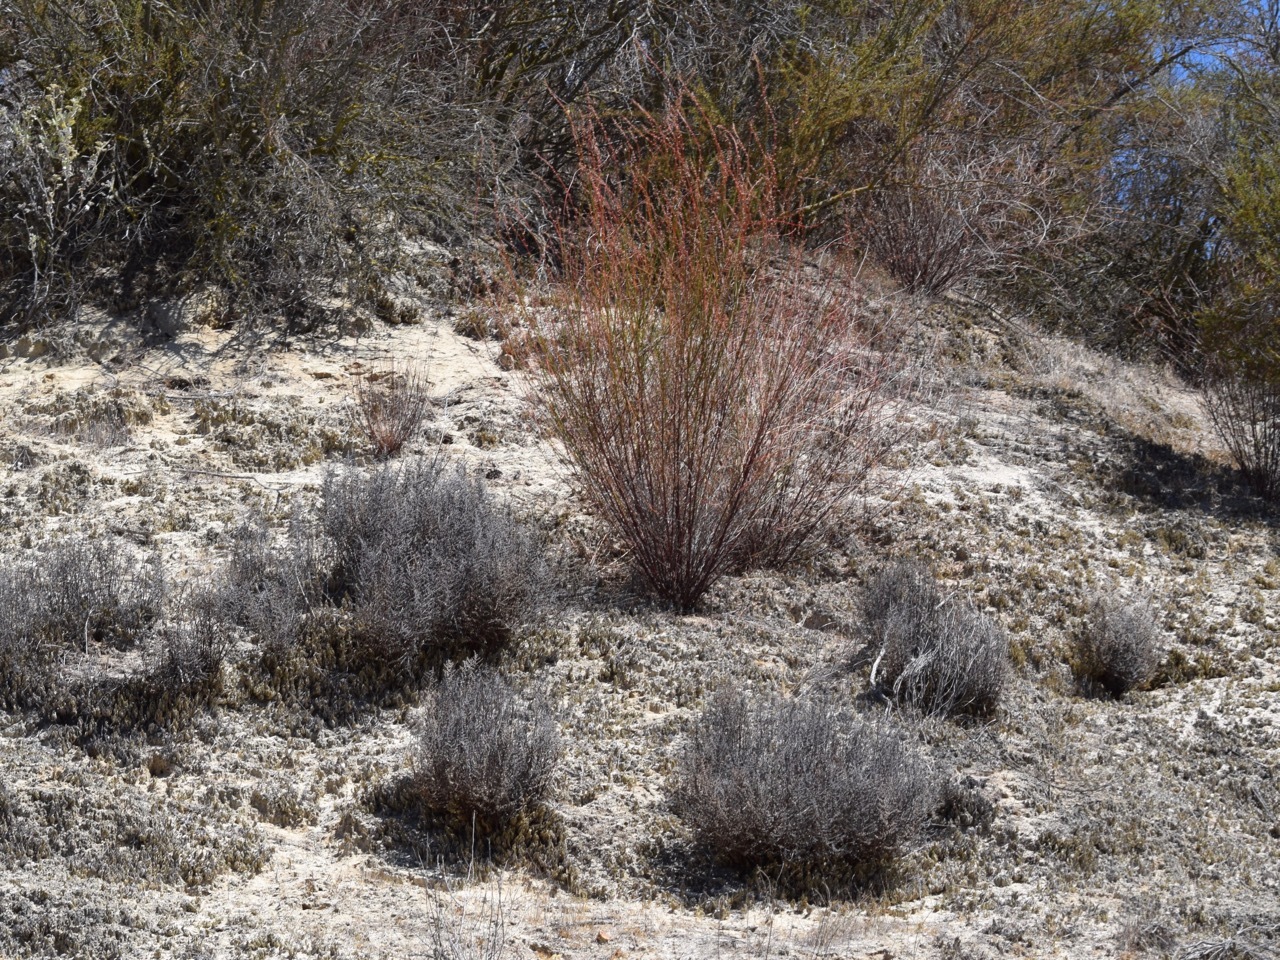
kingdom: Plantae
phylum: Tracheophyta
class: Magnoliopsida
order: Fabales
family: Fabaceae
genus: Acmispon
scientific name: Acmispon glaber
